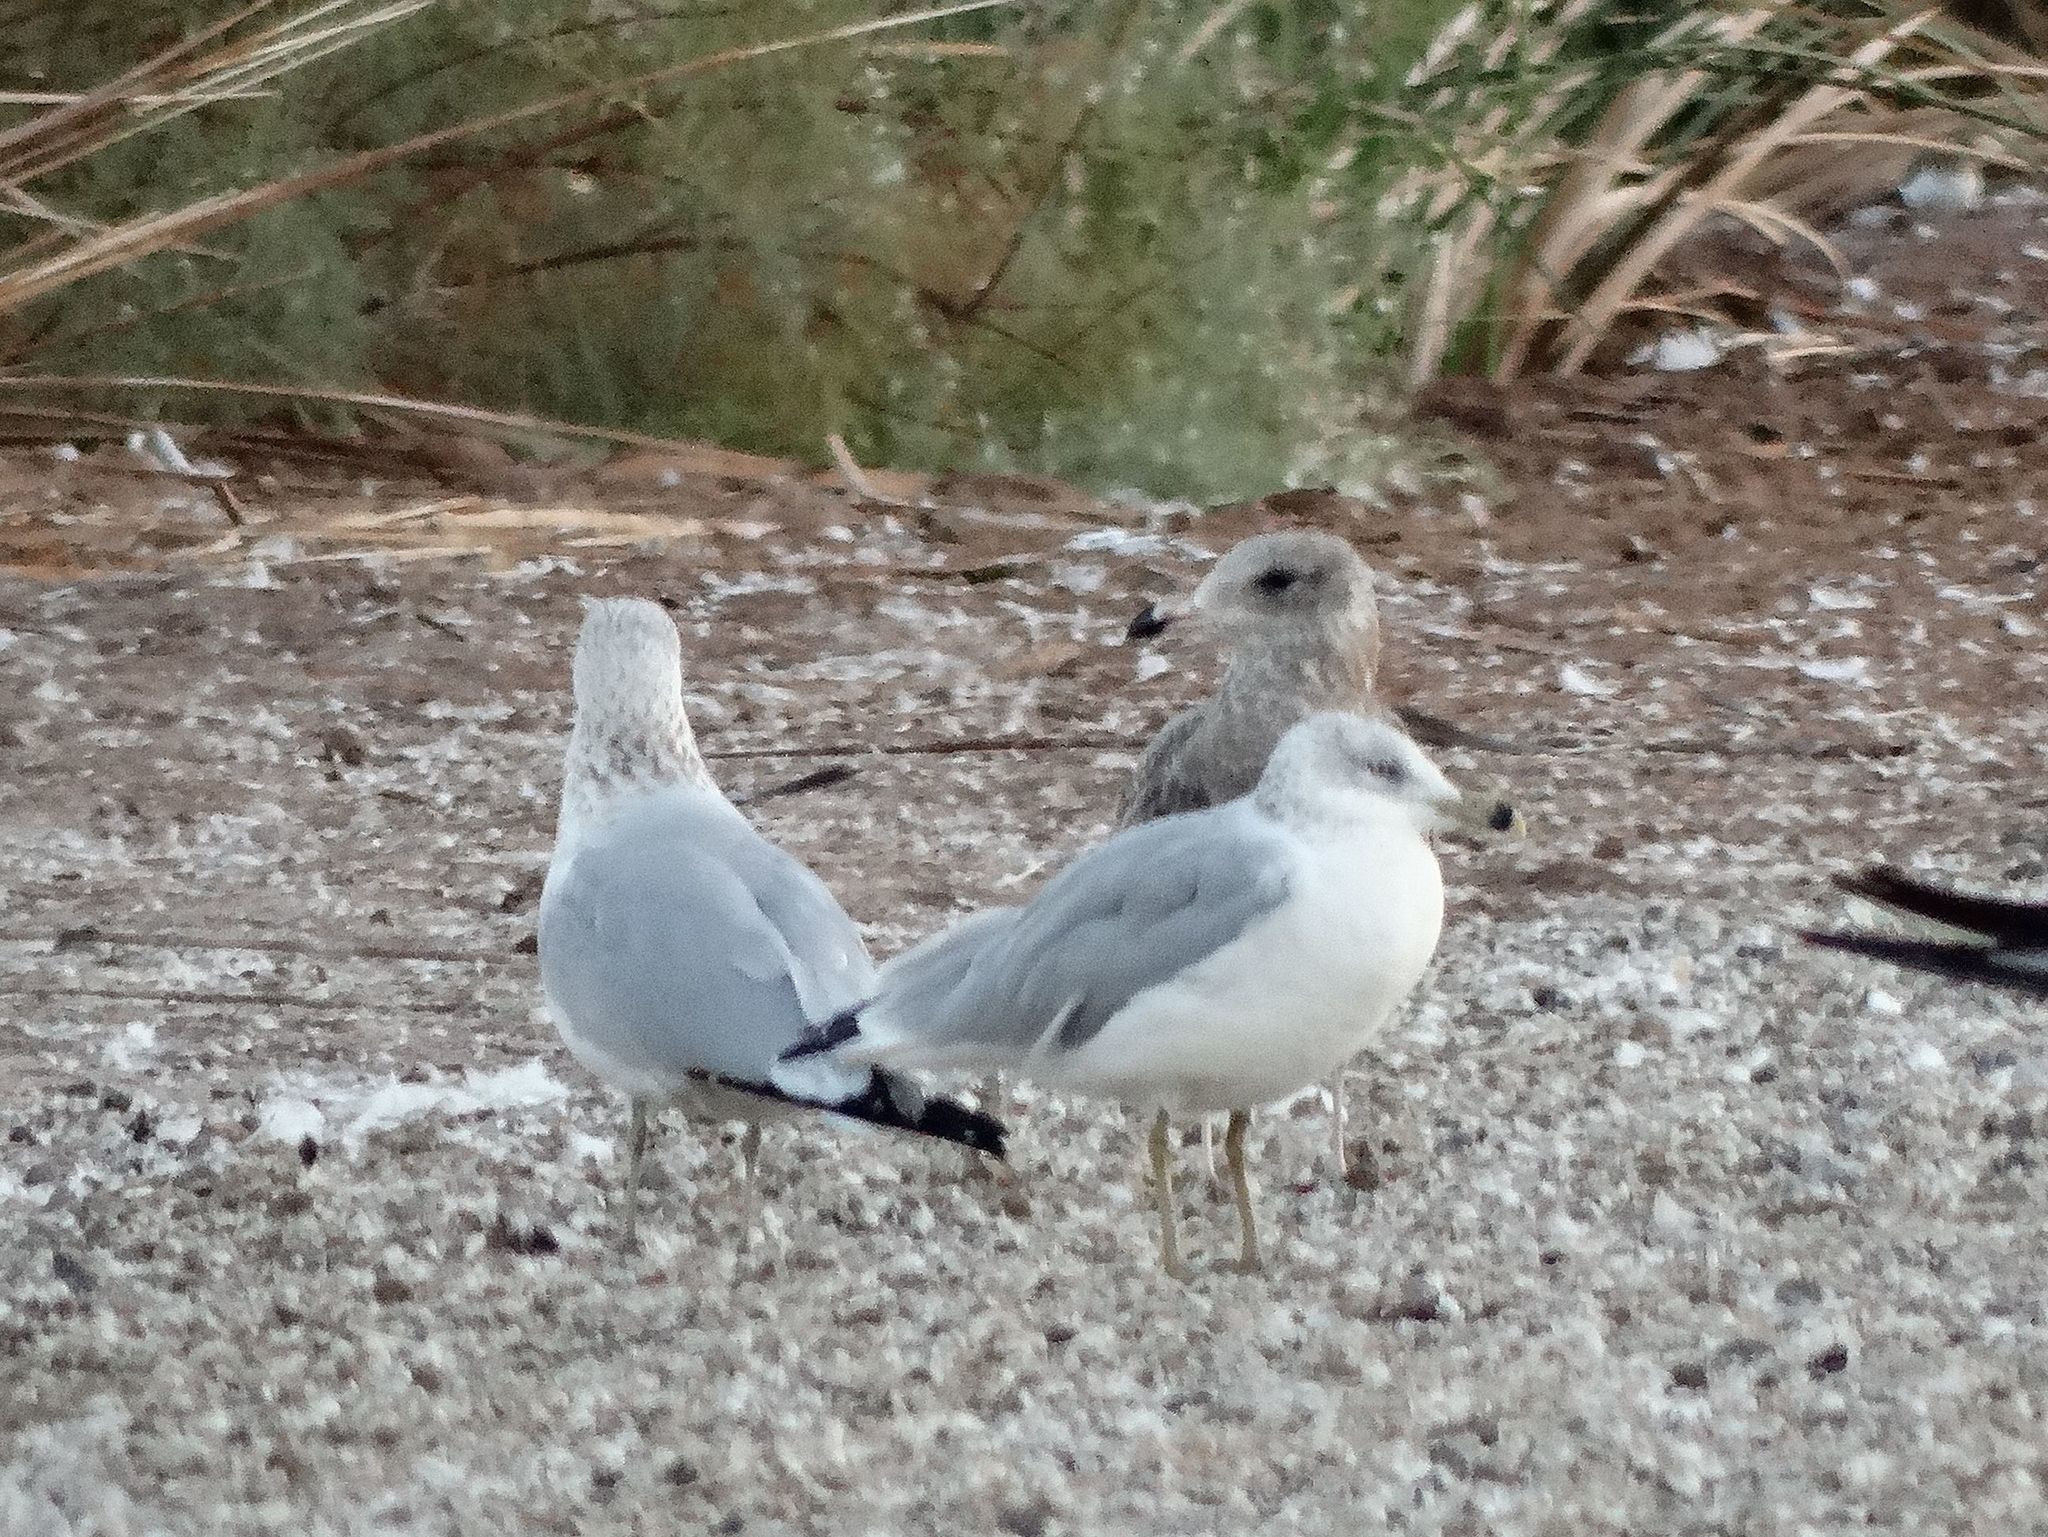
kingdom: Animalia
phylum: Chordata
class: Aves
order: Charadriiformes
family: Laridae
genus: Larus
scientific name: Larus delawarensis
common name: Ring-billed gull
